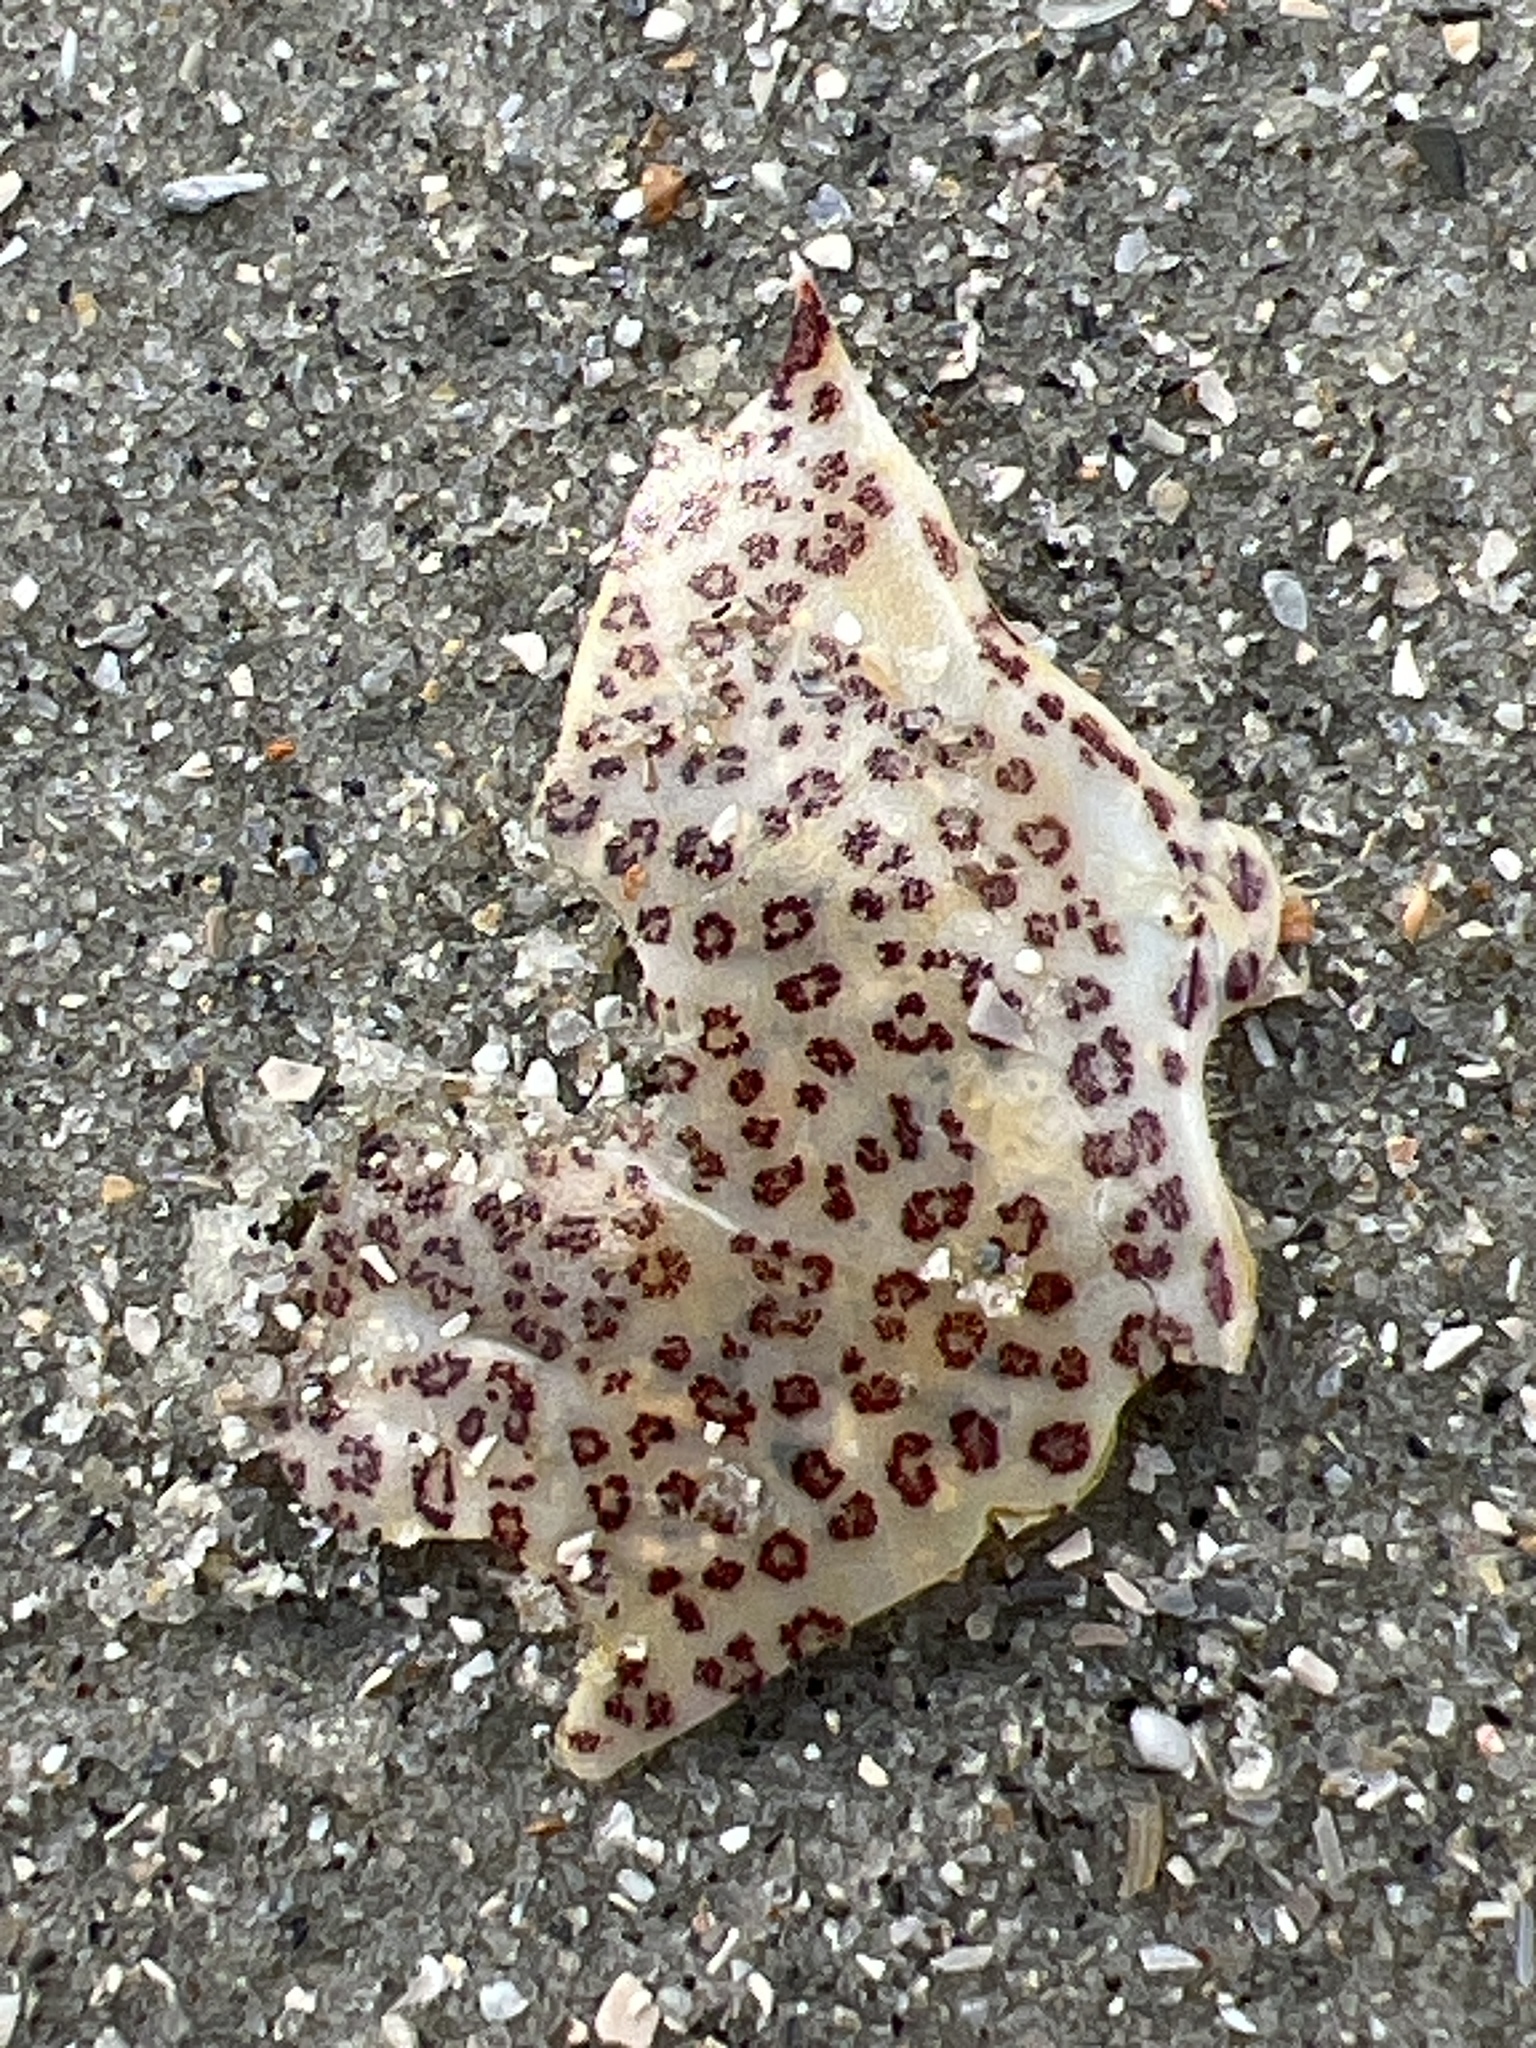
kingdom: Animalia
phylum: Arthropoda
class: Malacostraca
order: Decapoda
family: Ovalipidae
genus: Ovalipes
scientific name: Ovalipes ocellatus
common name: Lady crab
